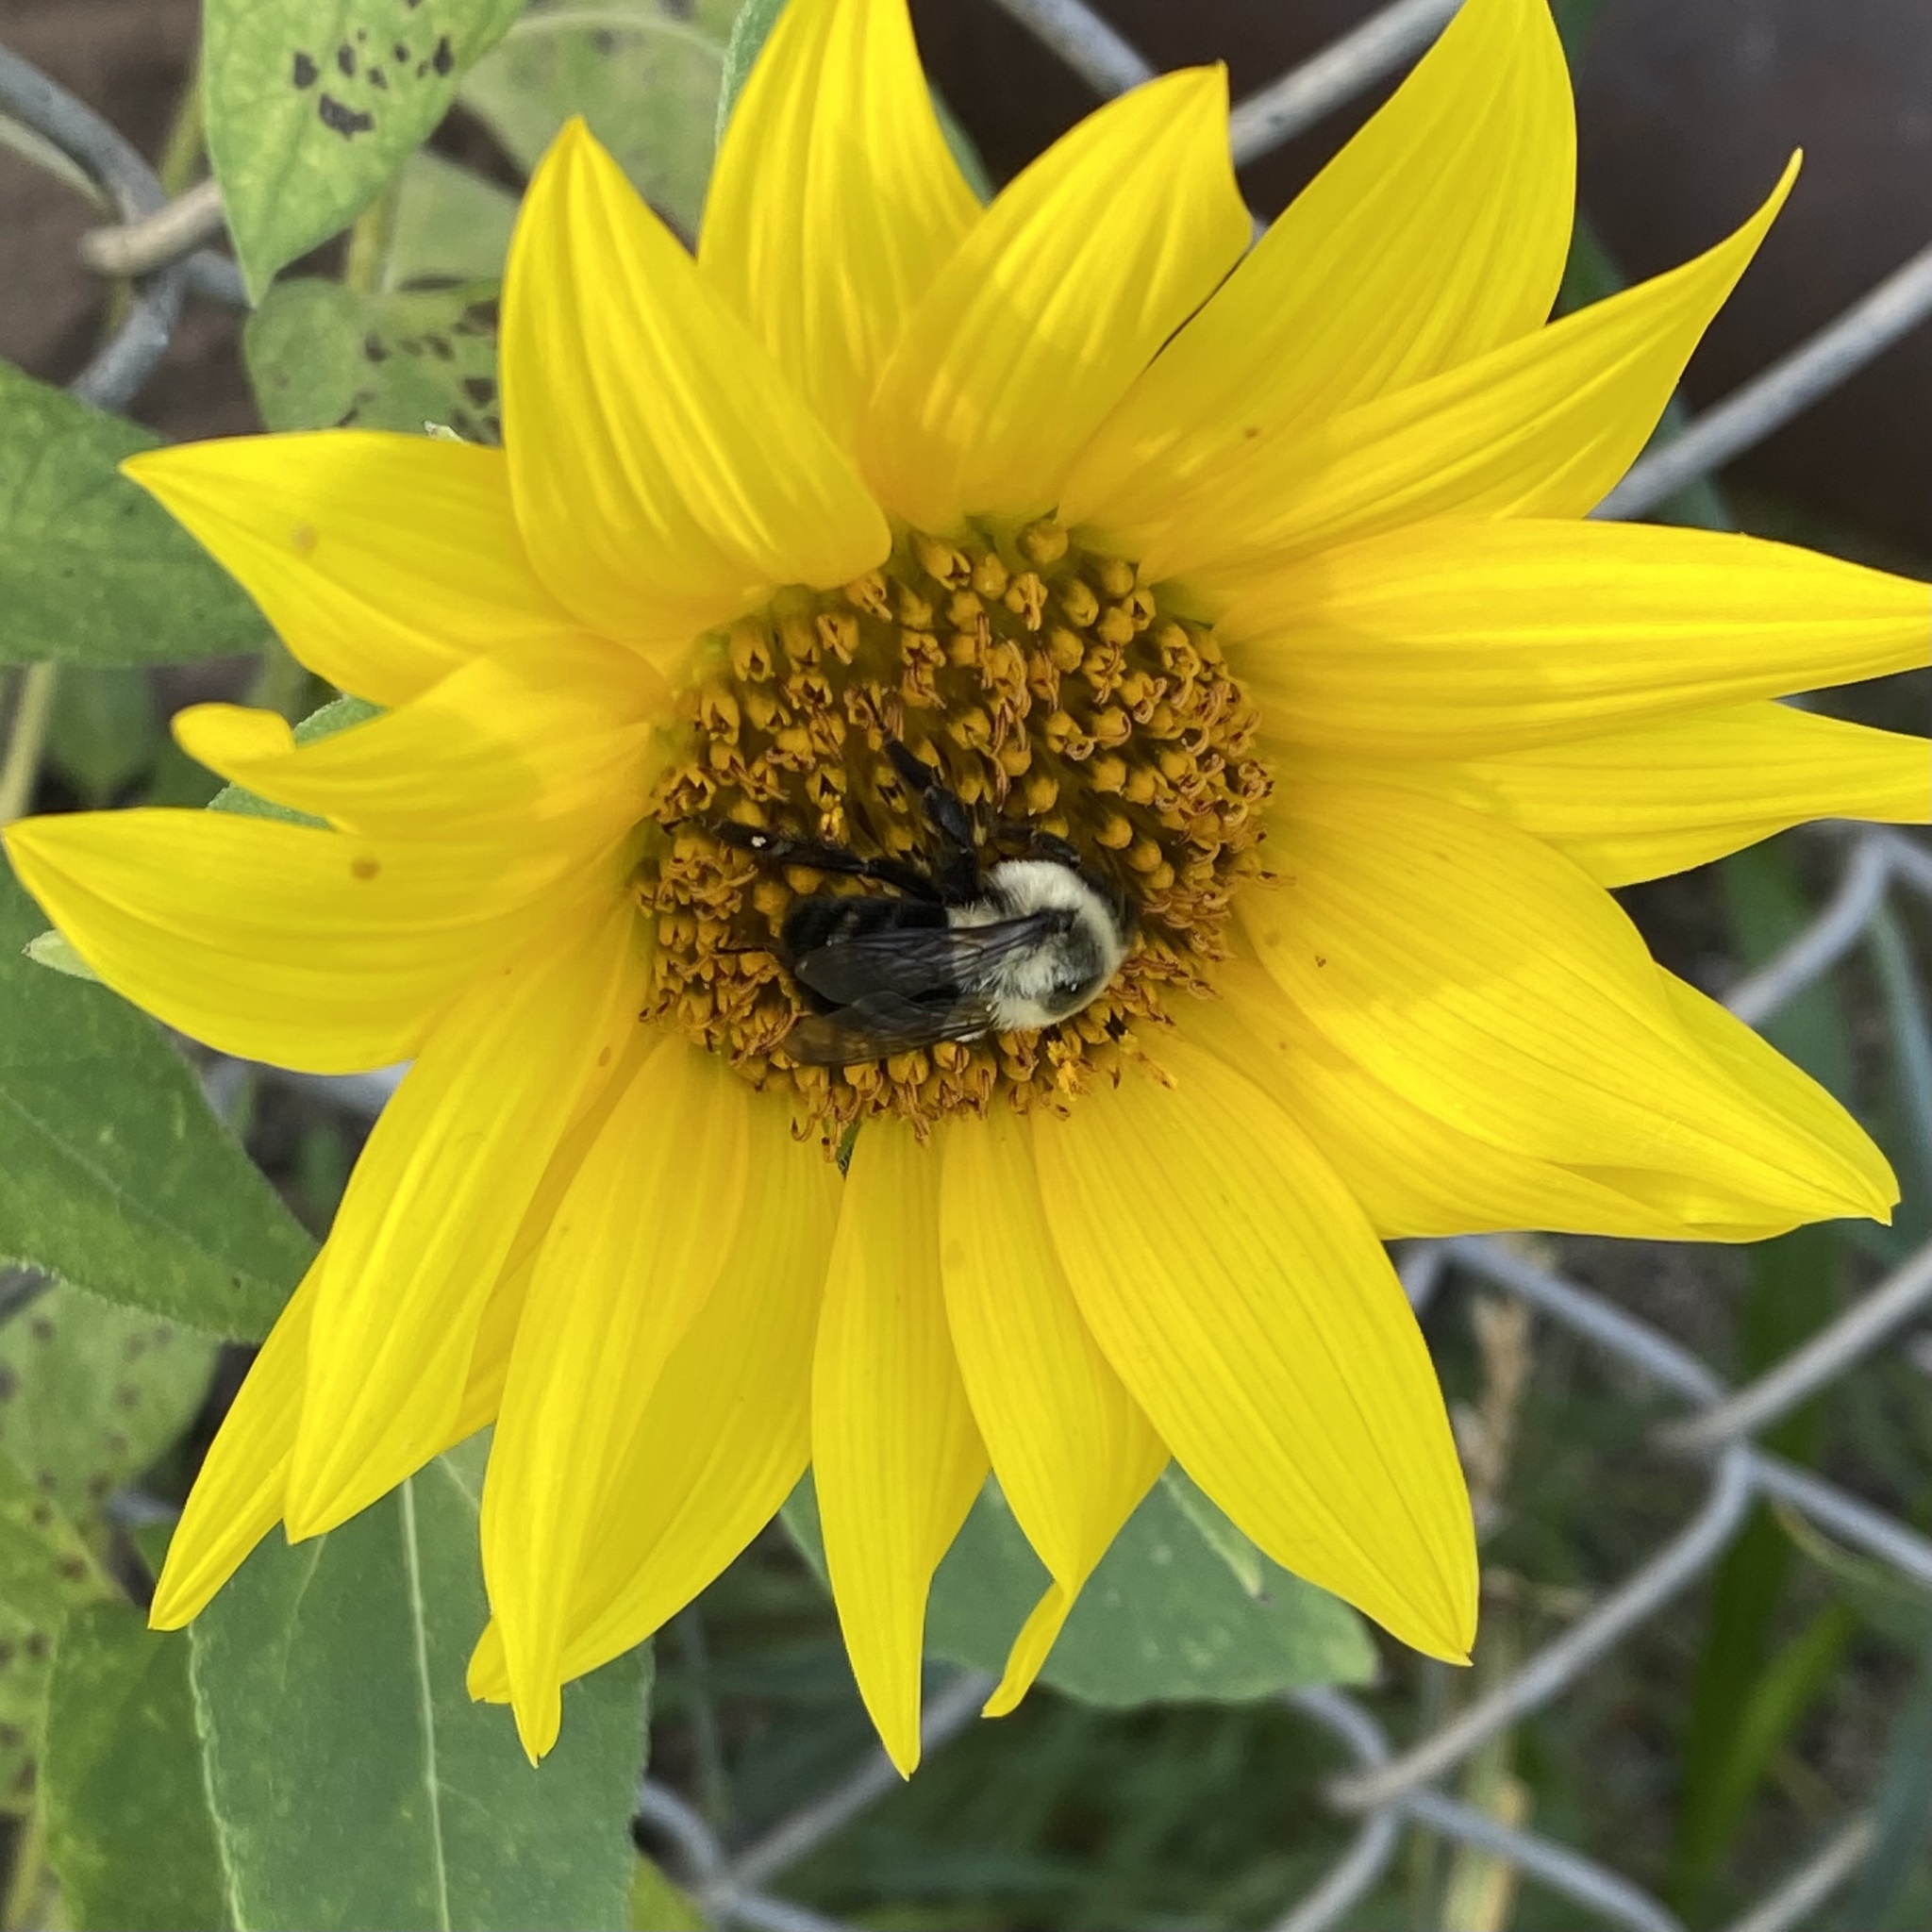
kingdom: Animalia
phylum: Arthropoda
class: Insecta
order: Hymenoptera
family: Apidae
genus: Bombus
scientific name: Bombus impatiens
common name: Common eastern bumble bee
